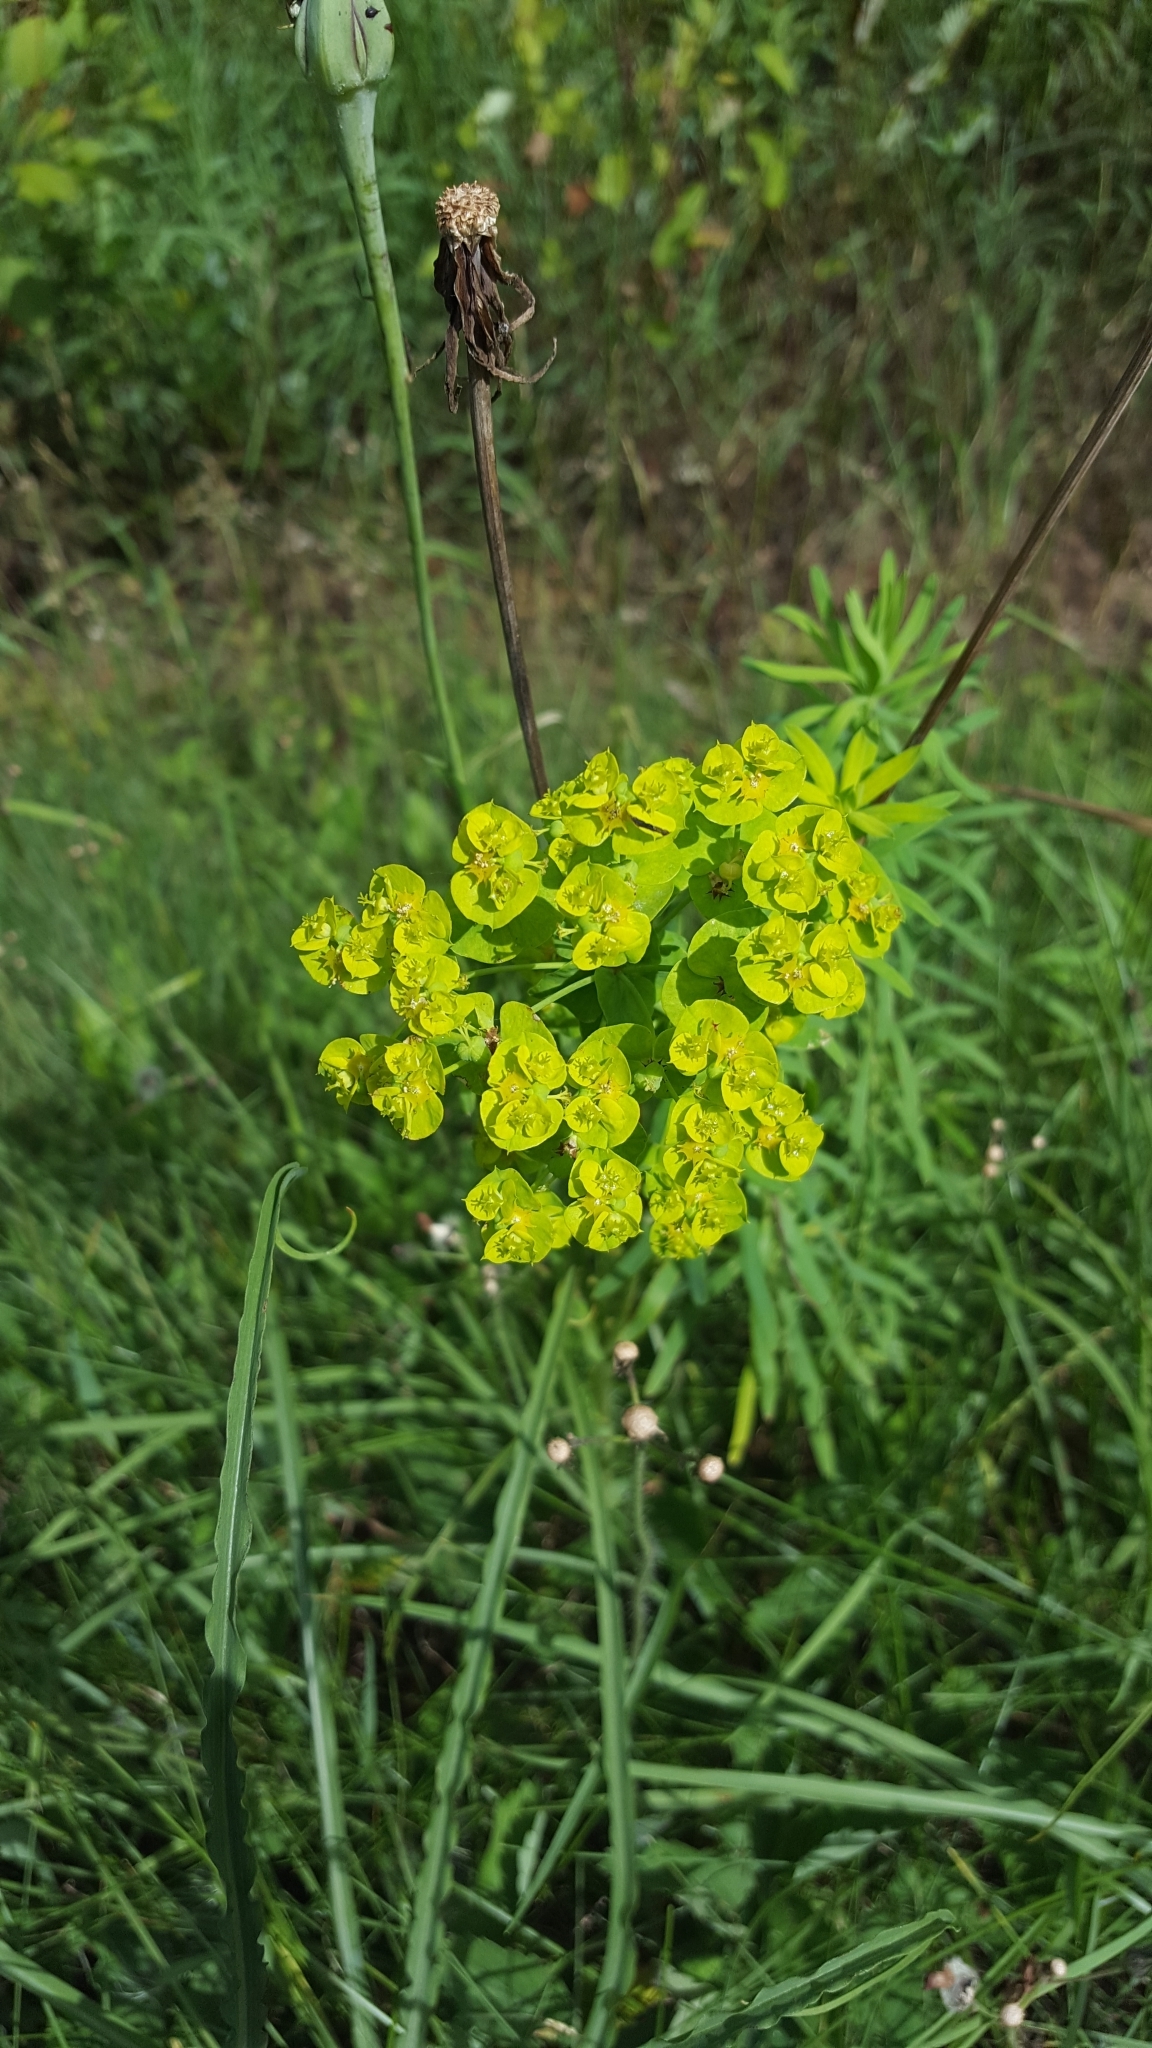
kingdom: Plantae
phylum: Tracheophyta
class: Magnoliopsida
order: Malpighiales
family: Euphorbiaceae
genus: Euphorbia
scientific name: Euphorbia virgata
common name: Leafy spurge
